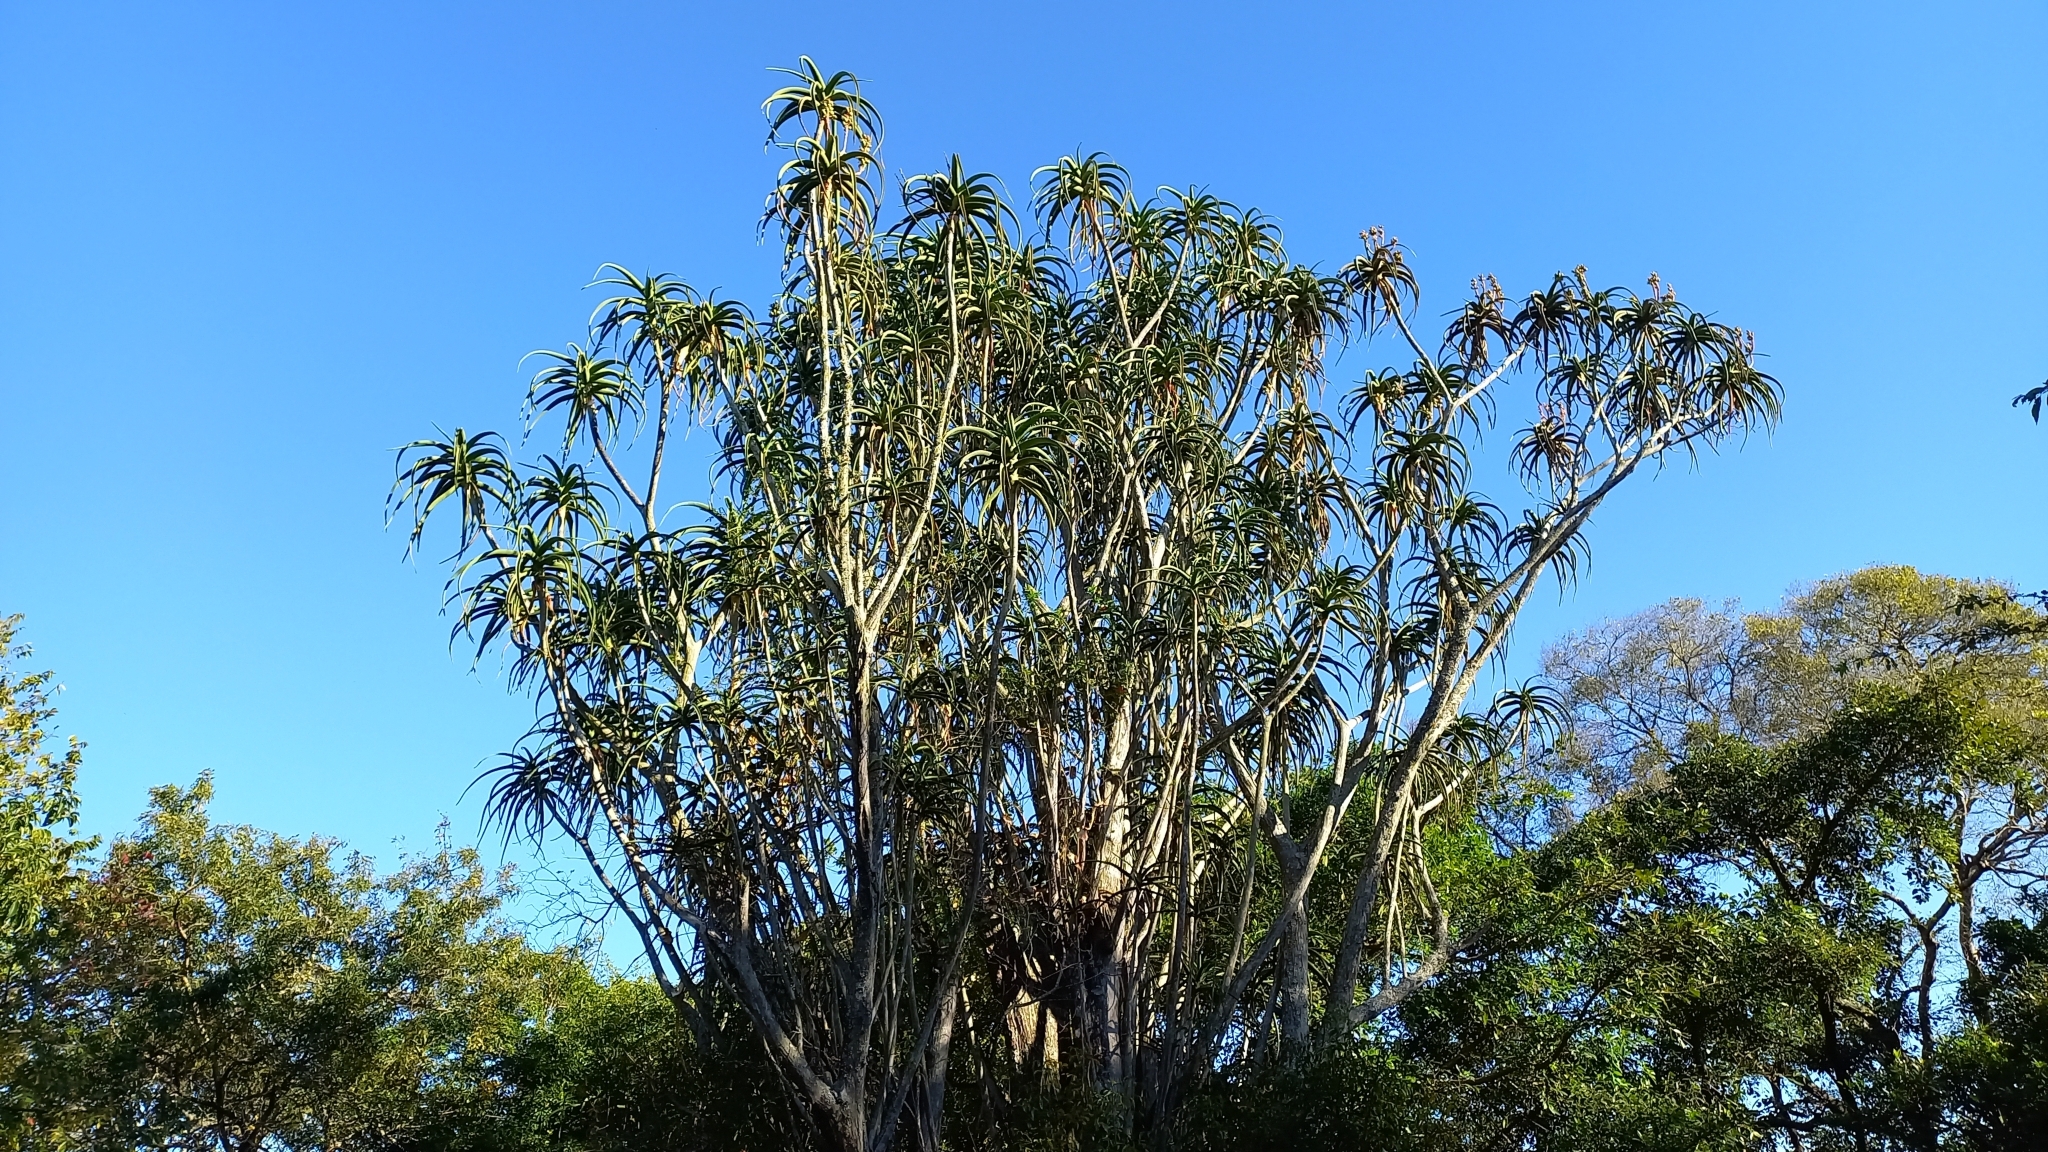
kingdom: Plantae
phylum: Tracheophyta
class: Liliopsida
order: Asparagales
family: Asphodelaceae
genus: Aloidendron
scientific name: Aloidendron barberae
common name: Tree aloe
